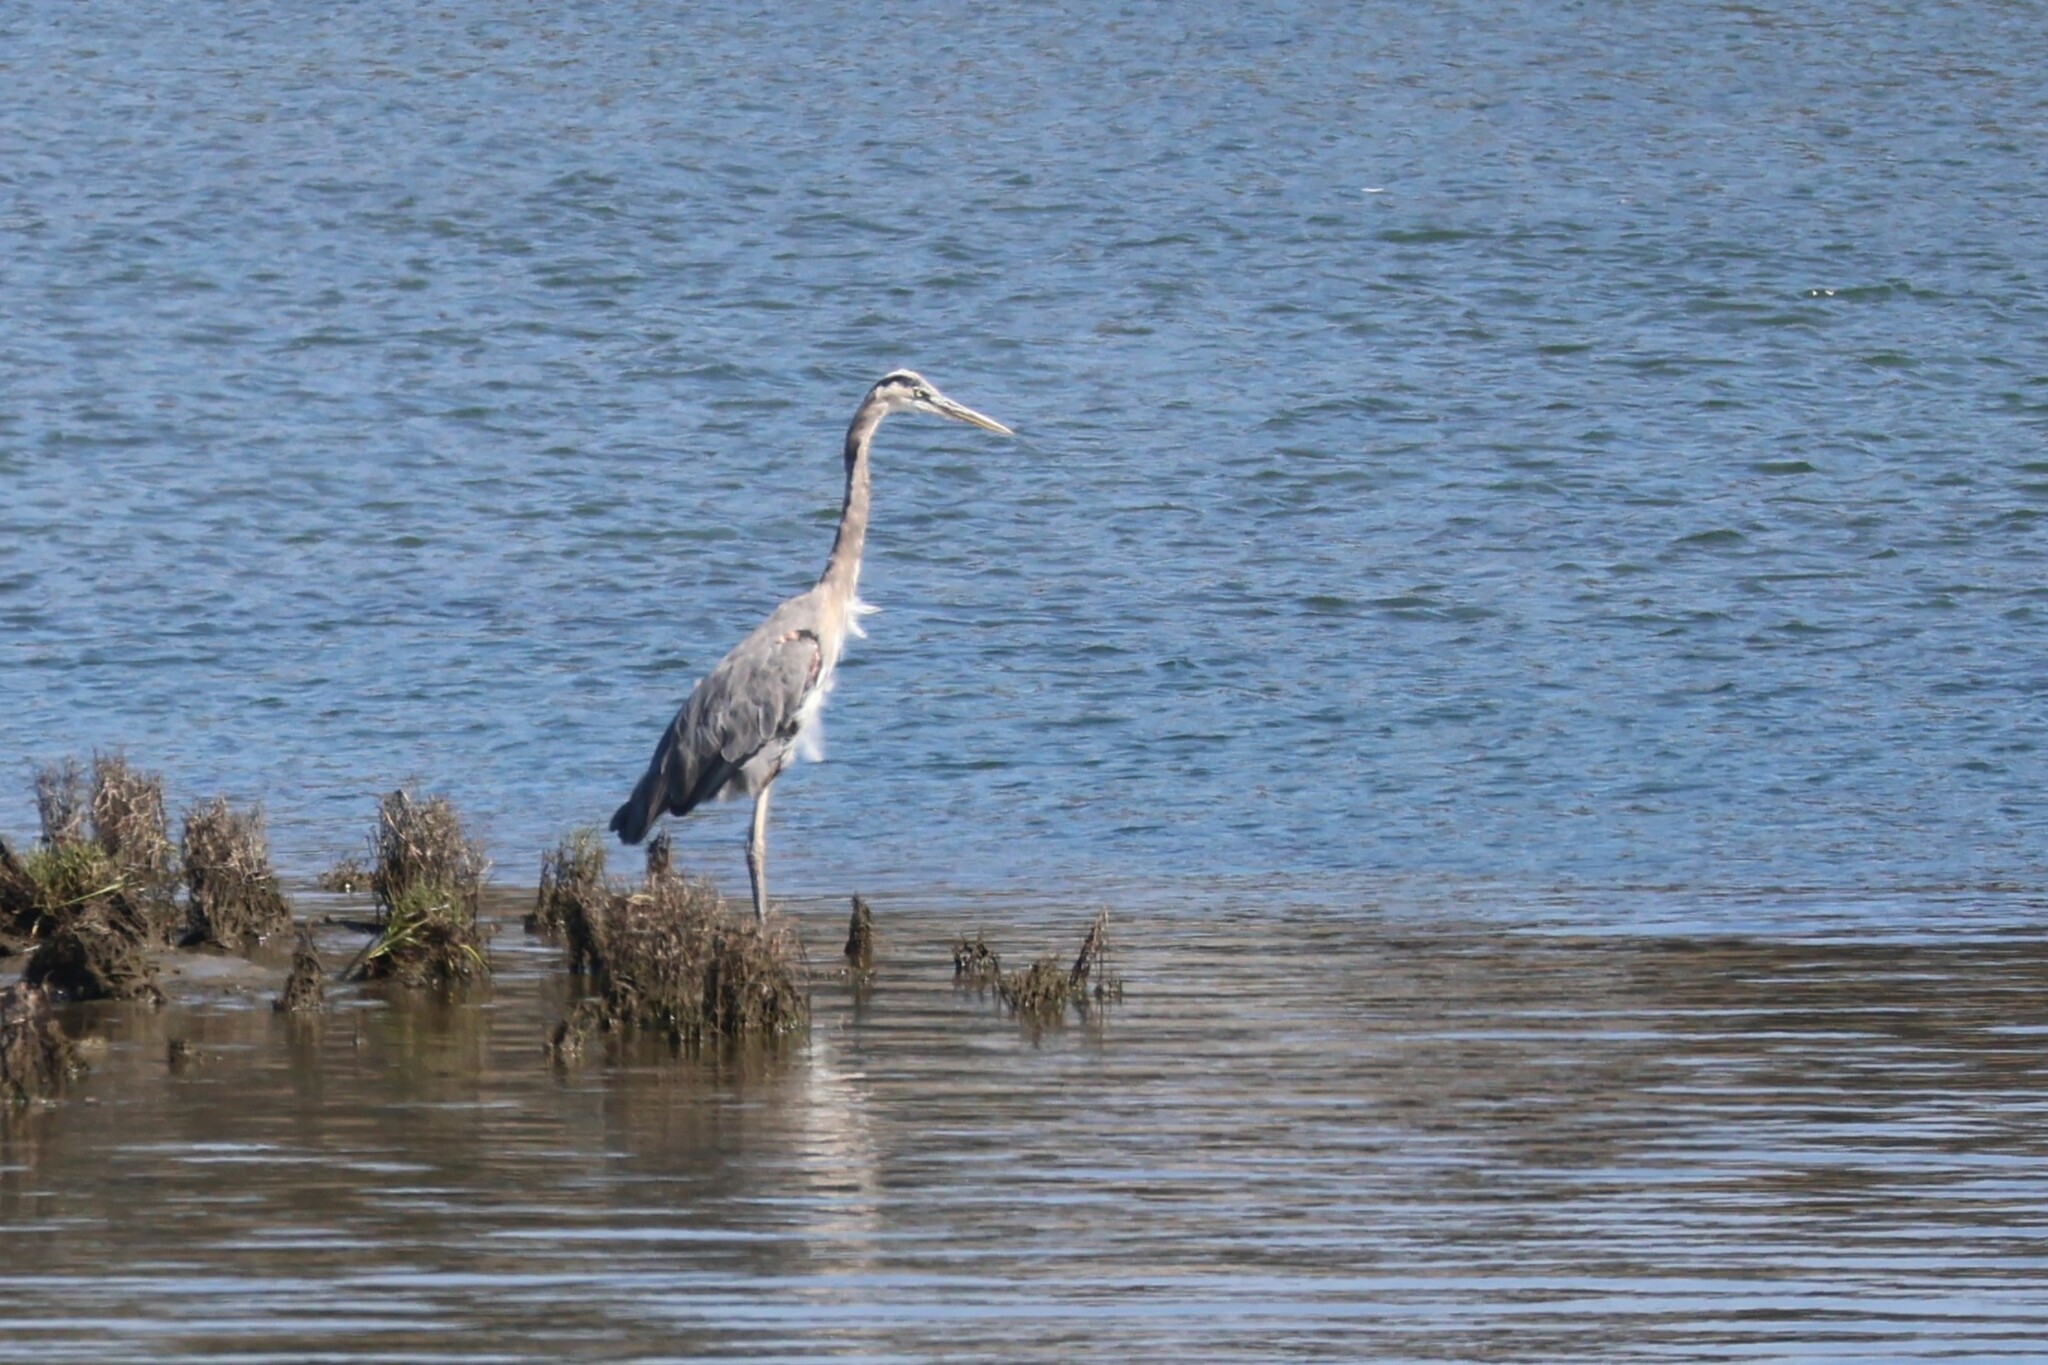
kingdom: Animalia
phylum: Chordata
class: Aves
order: Pelecaniformes
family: Ardeidae
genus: Ardea
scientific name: Ardea herodias
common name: Great blue heron
